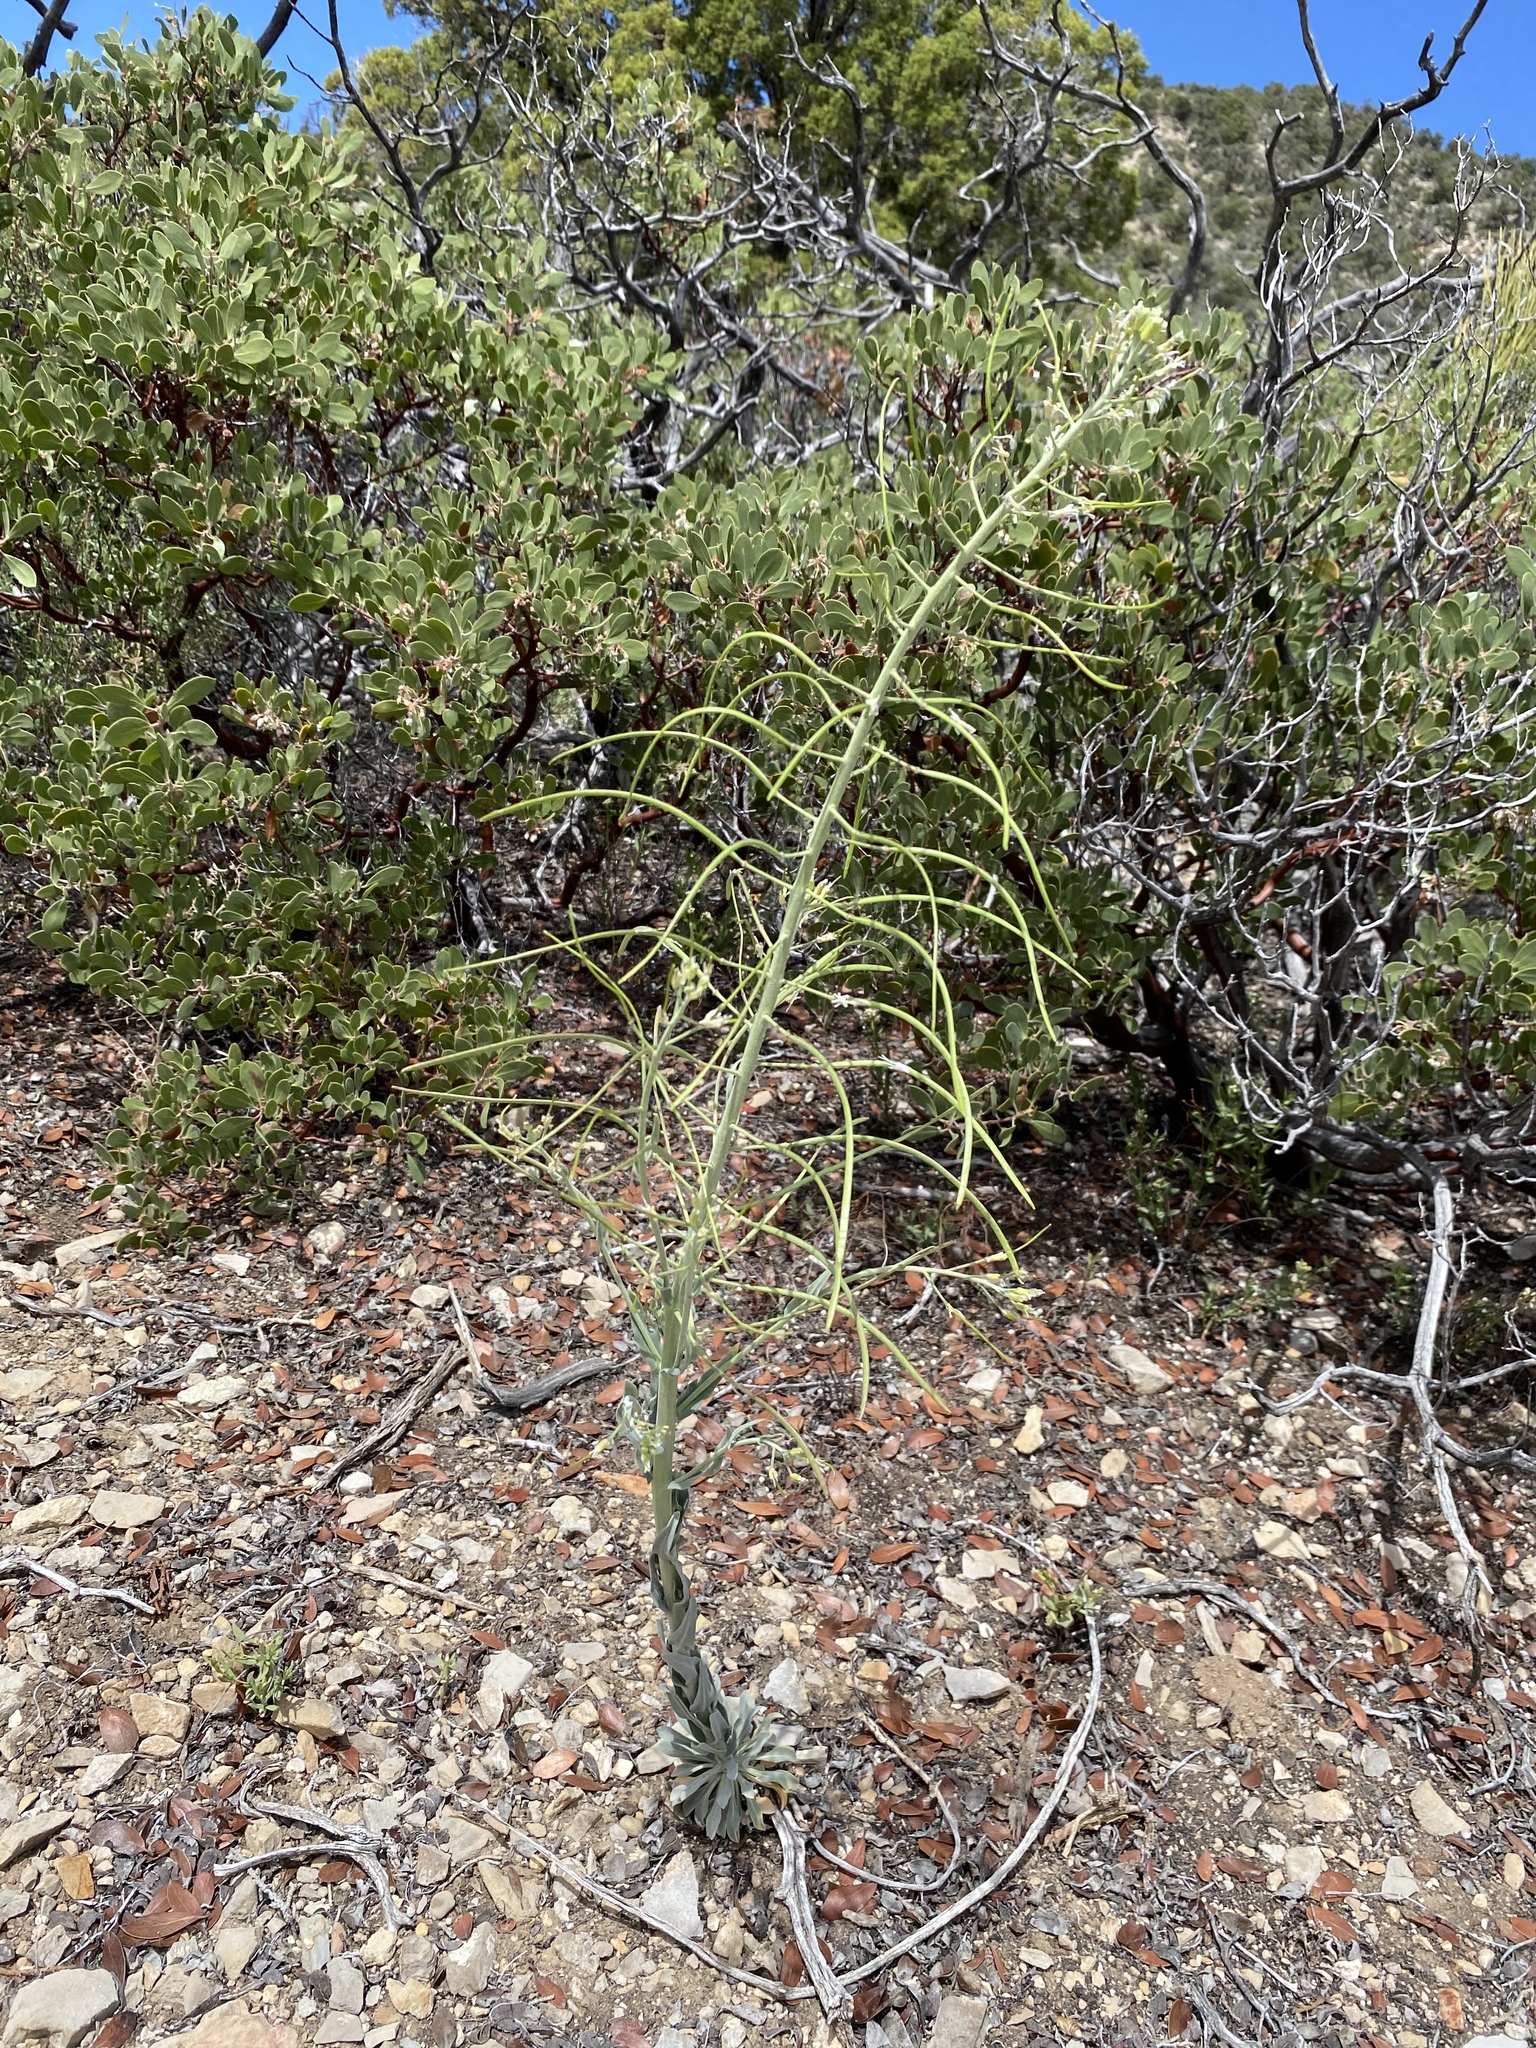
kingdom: Plantae
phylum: Tracheophyta
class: Magnoliopsida
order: Brassicales
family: Brassicaceae
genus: Boechera
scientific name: Boechera shockleyi
